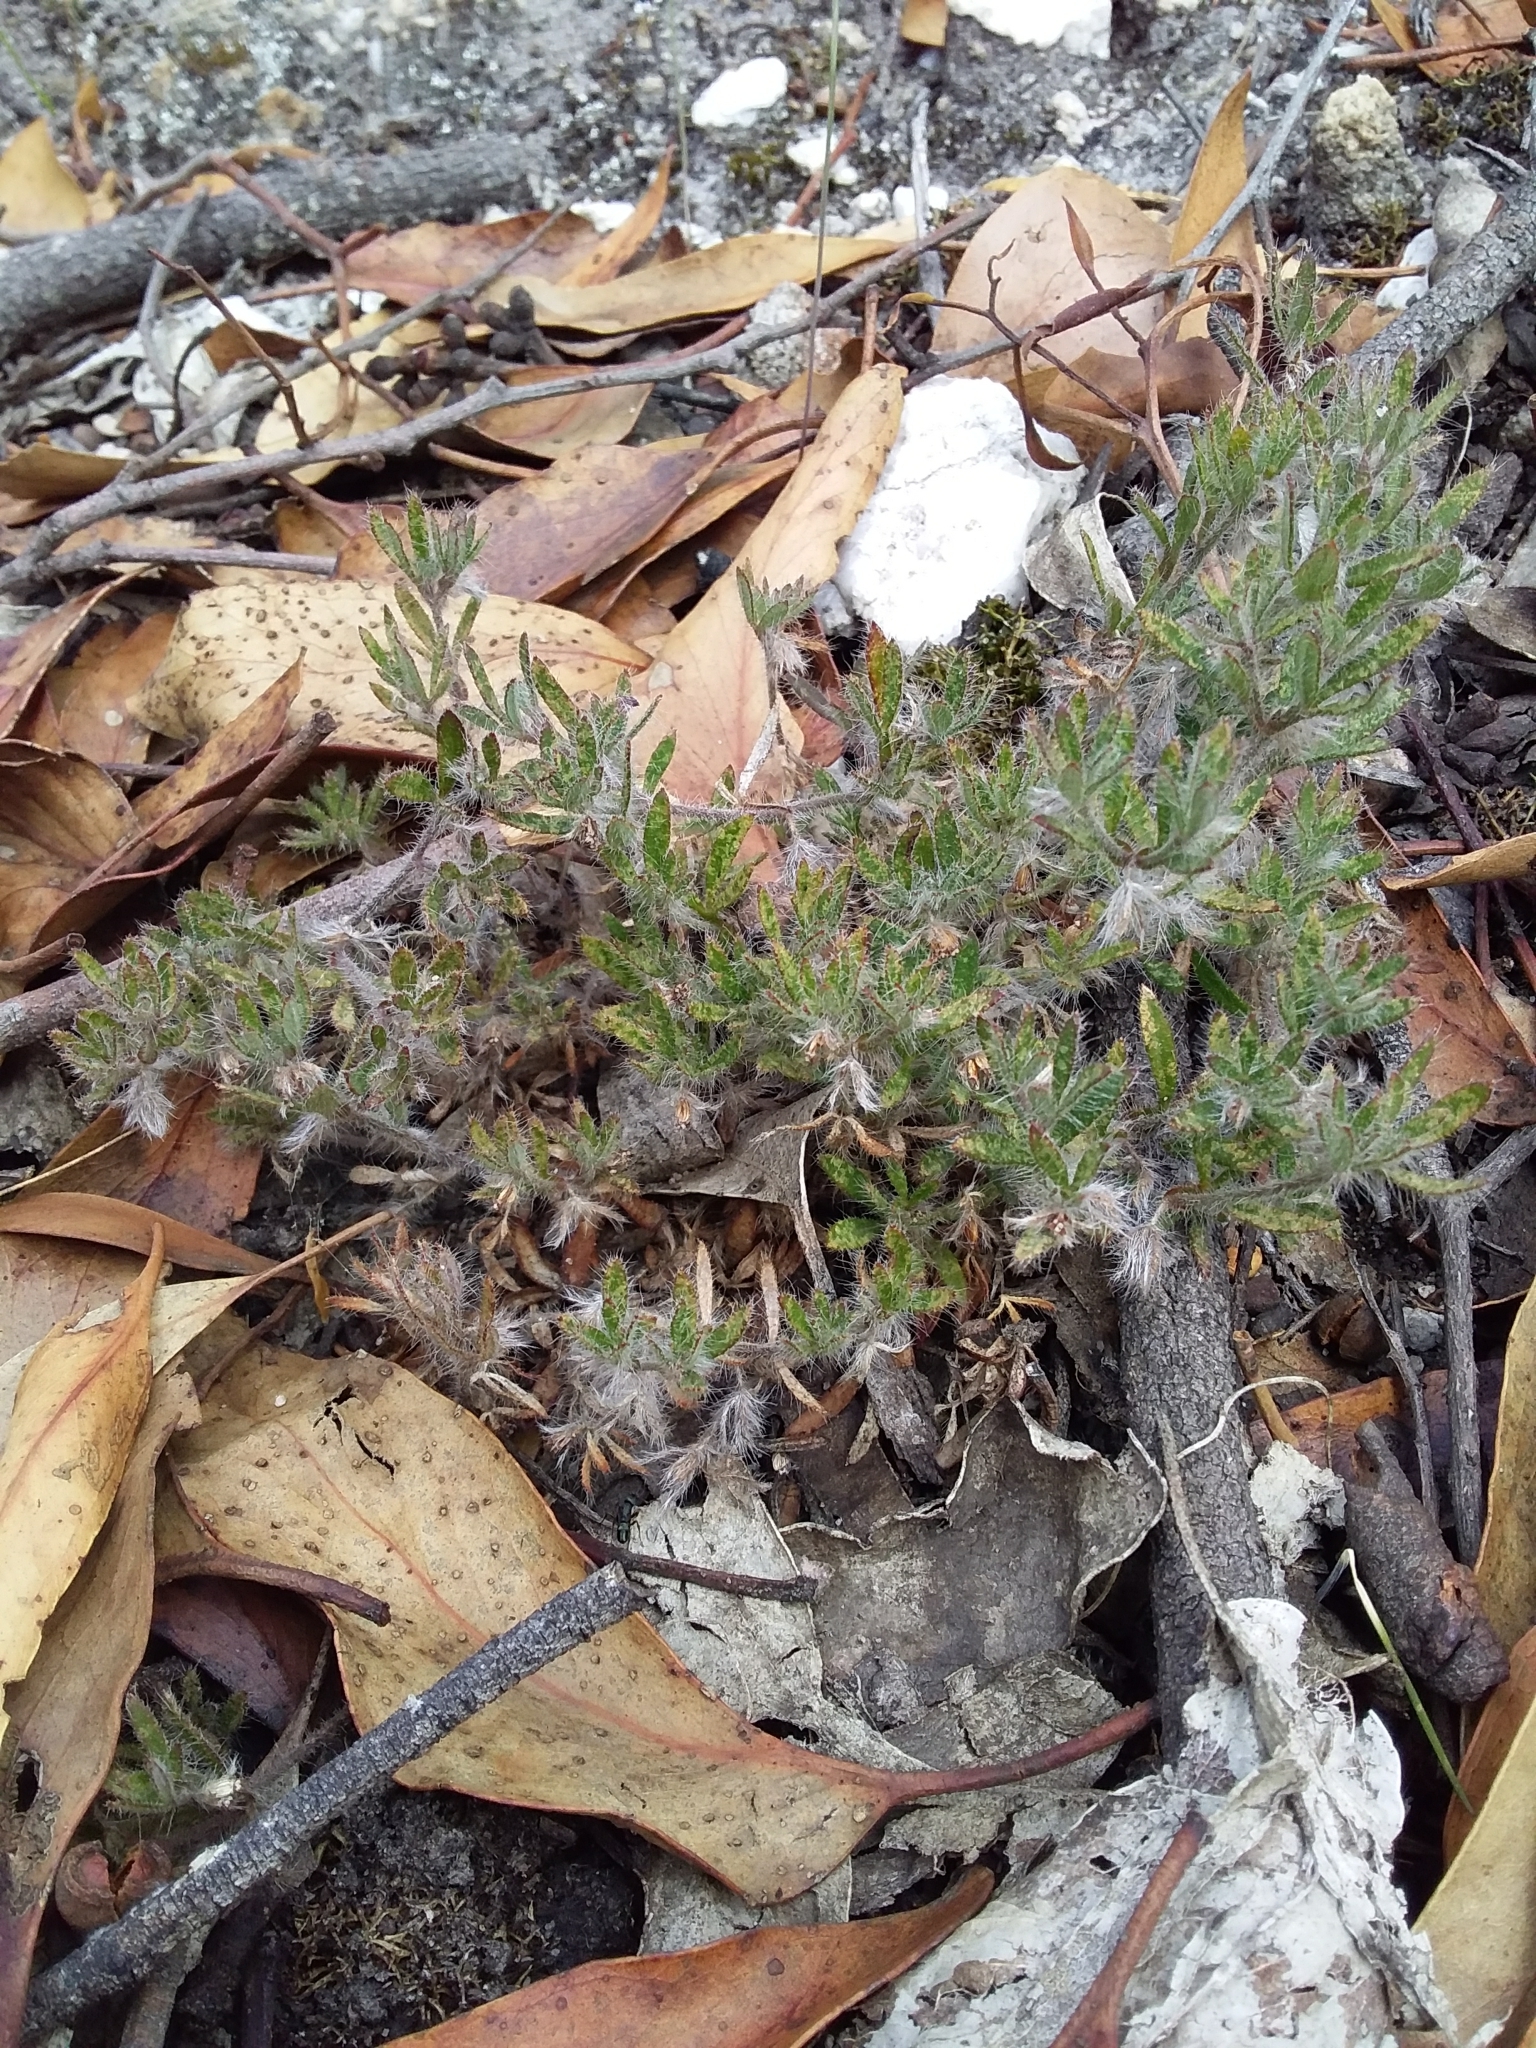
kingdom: Plantae
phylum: Tracheophyta
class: Magnoliopsida
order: Apiales
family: Apiaceae
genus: Xanthosia
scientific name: Xanthosia huegelii
